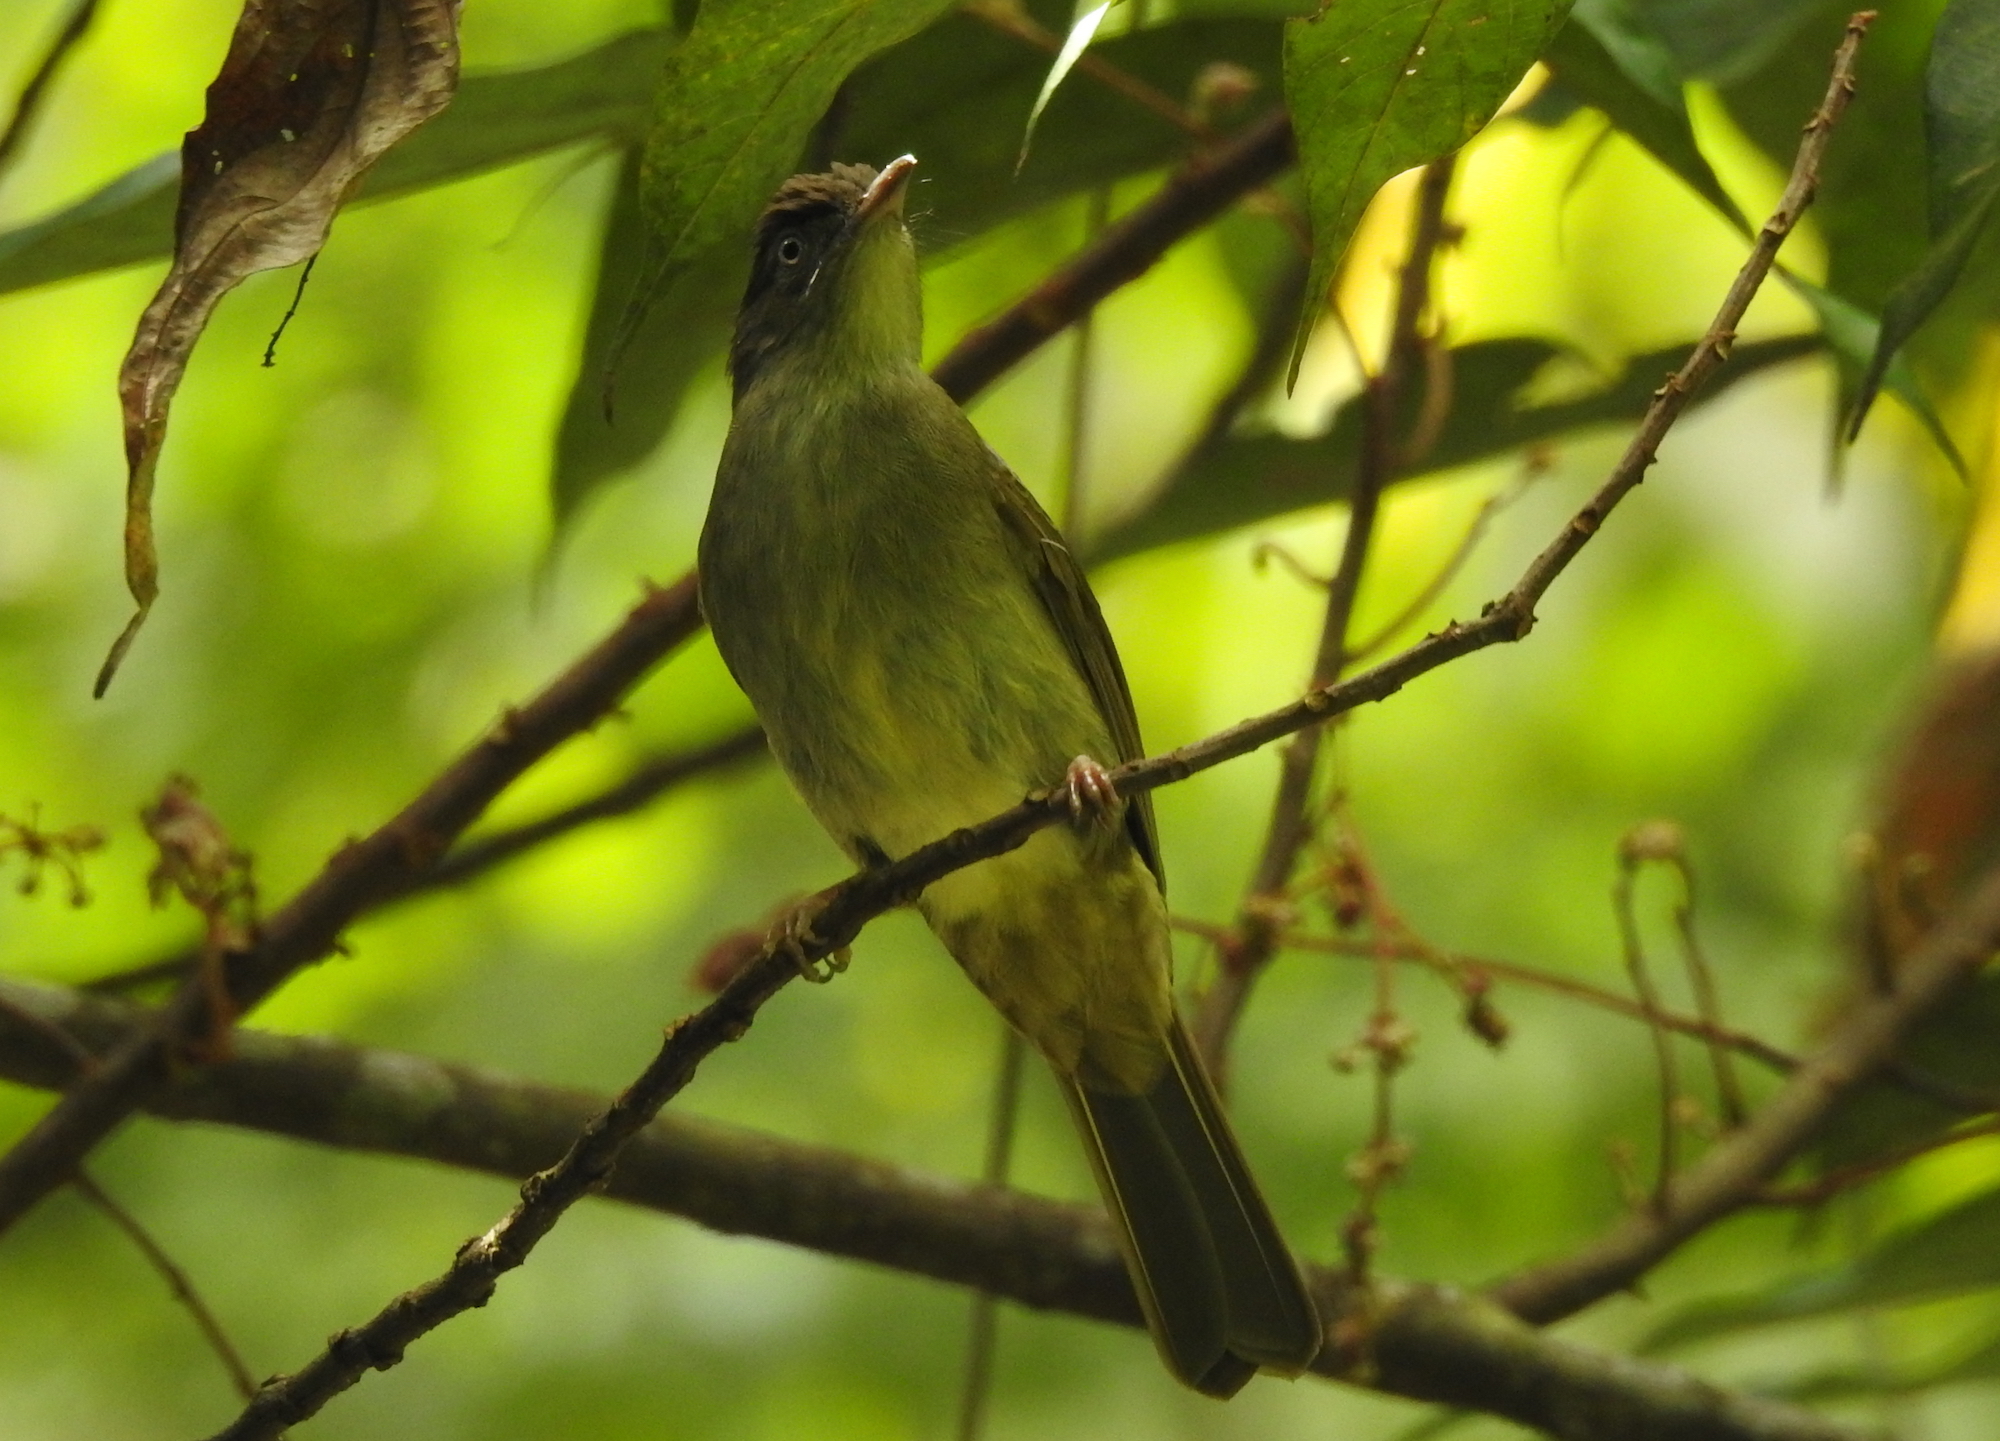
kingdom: Animalia
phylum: Chordata
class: Aves
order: Passeriformes
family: Pycnonotidae
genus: Iole
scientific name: Iole crypta
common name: Buff-vented bulbul
